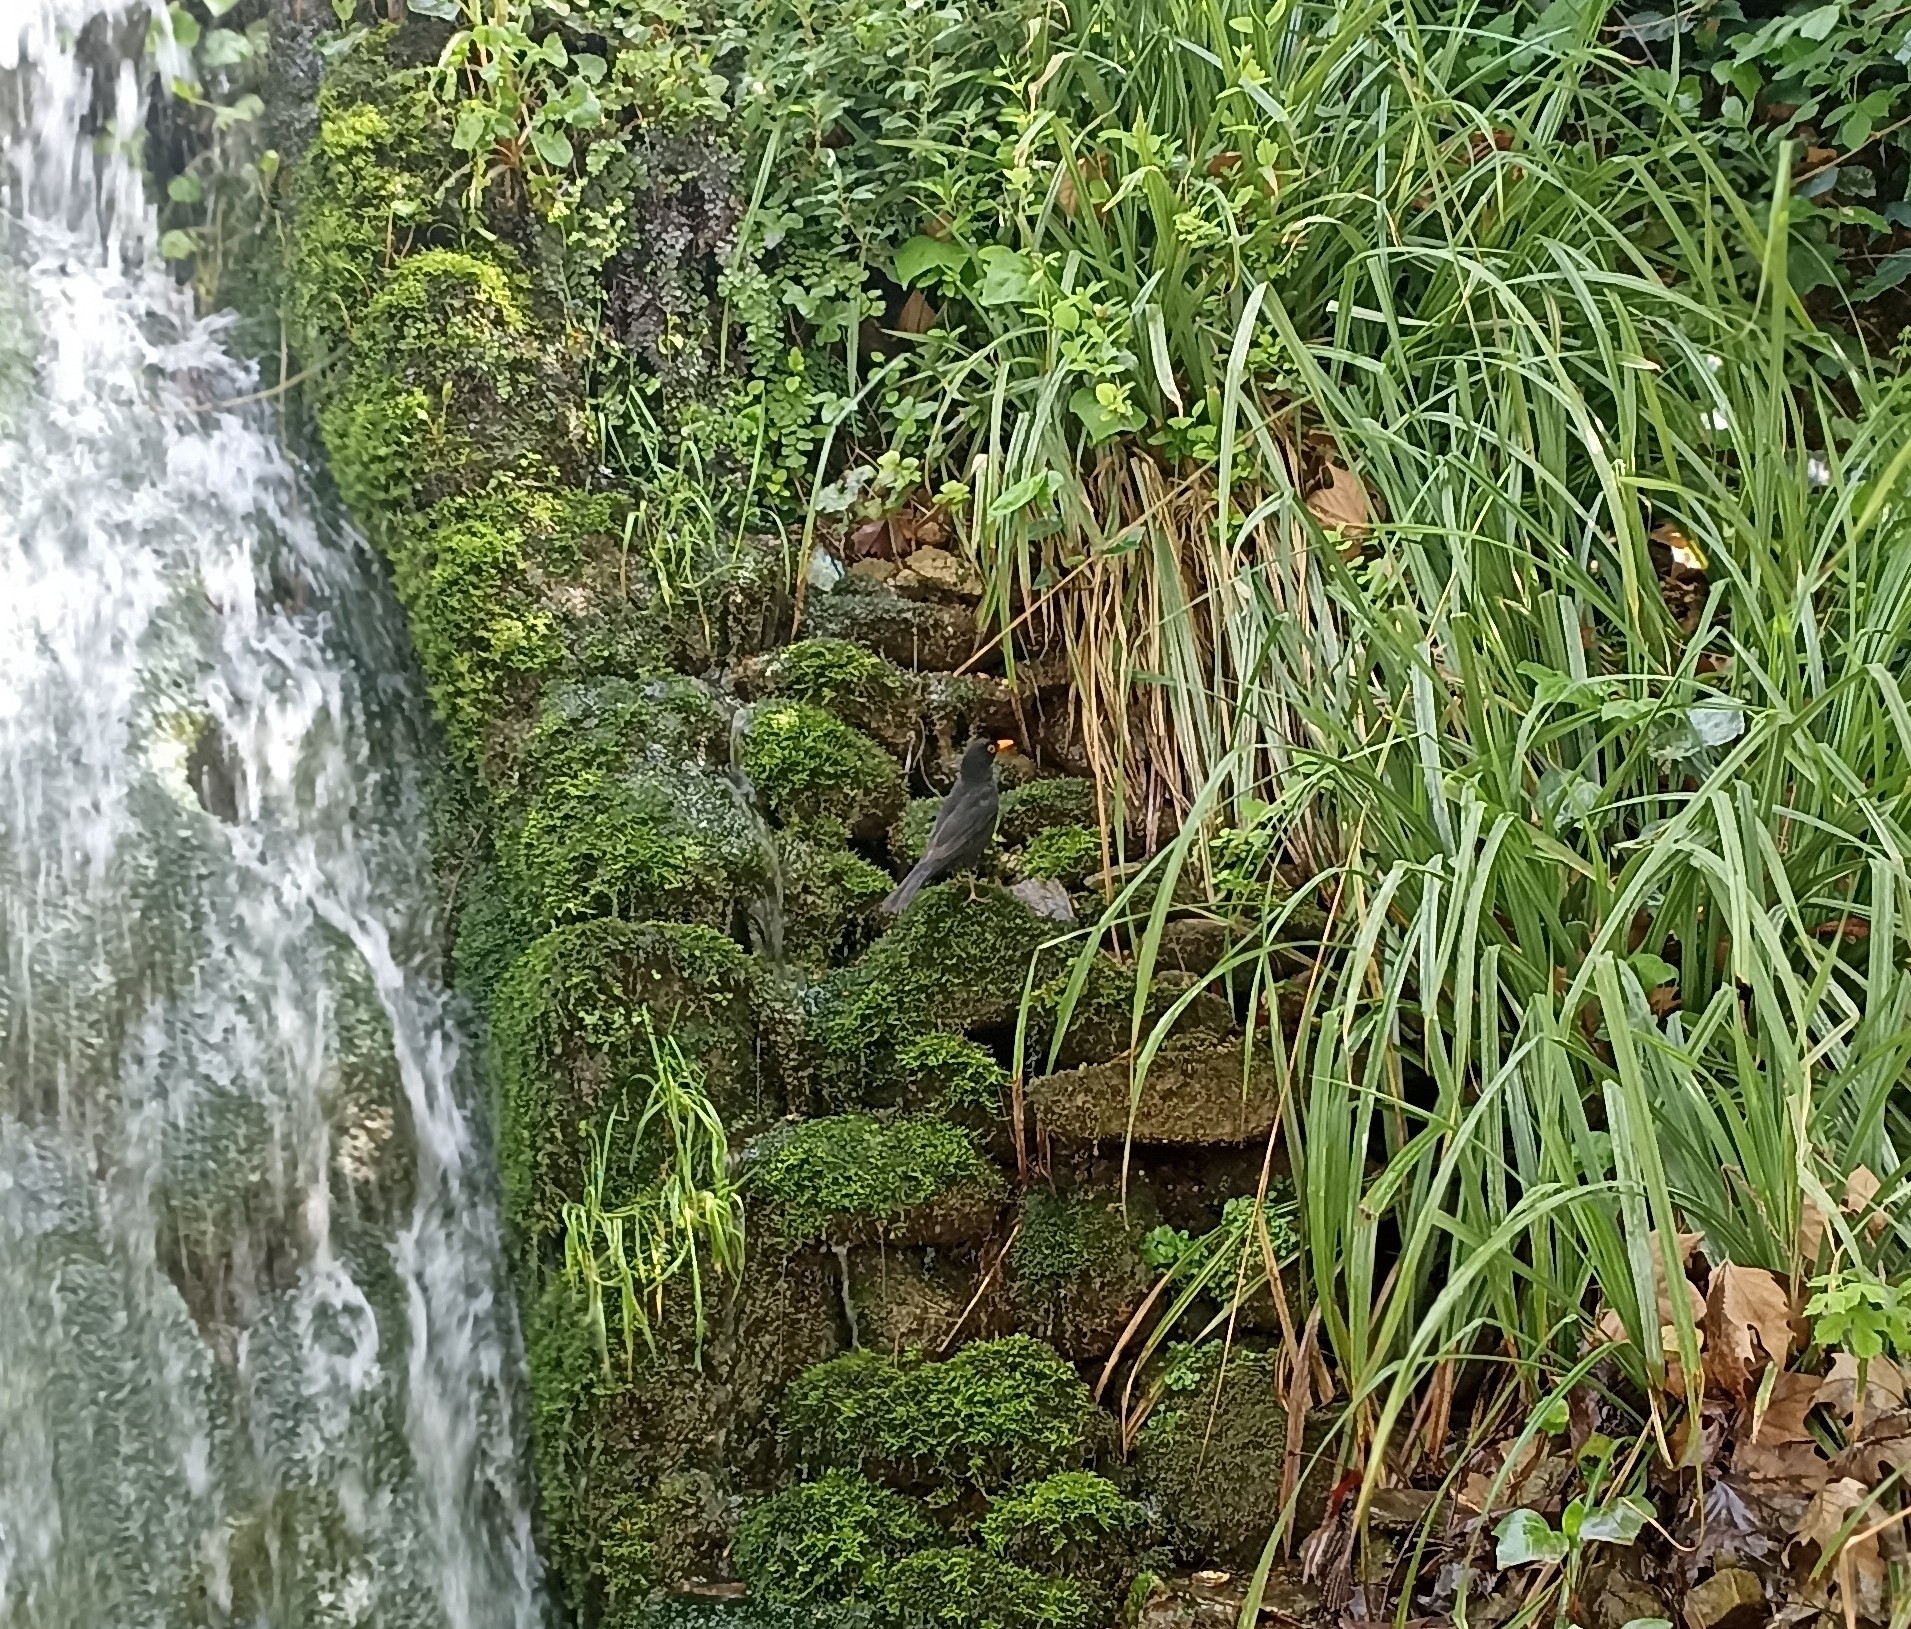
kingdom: Animalia
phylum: Chordata
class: Aves
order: Passeriformes
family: Turdidae
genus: Turdus
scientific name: Turdus merula
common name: Common blackbird
